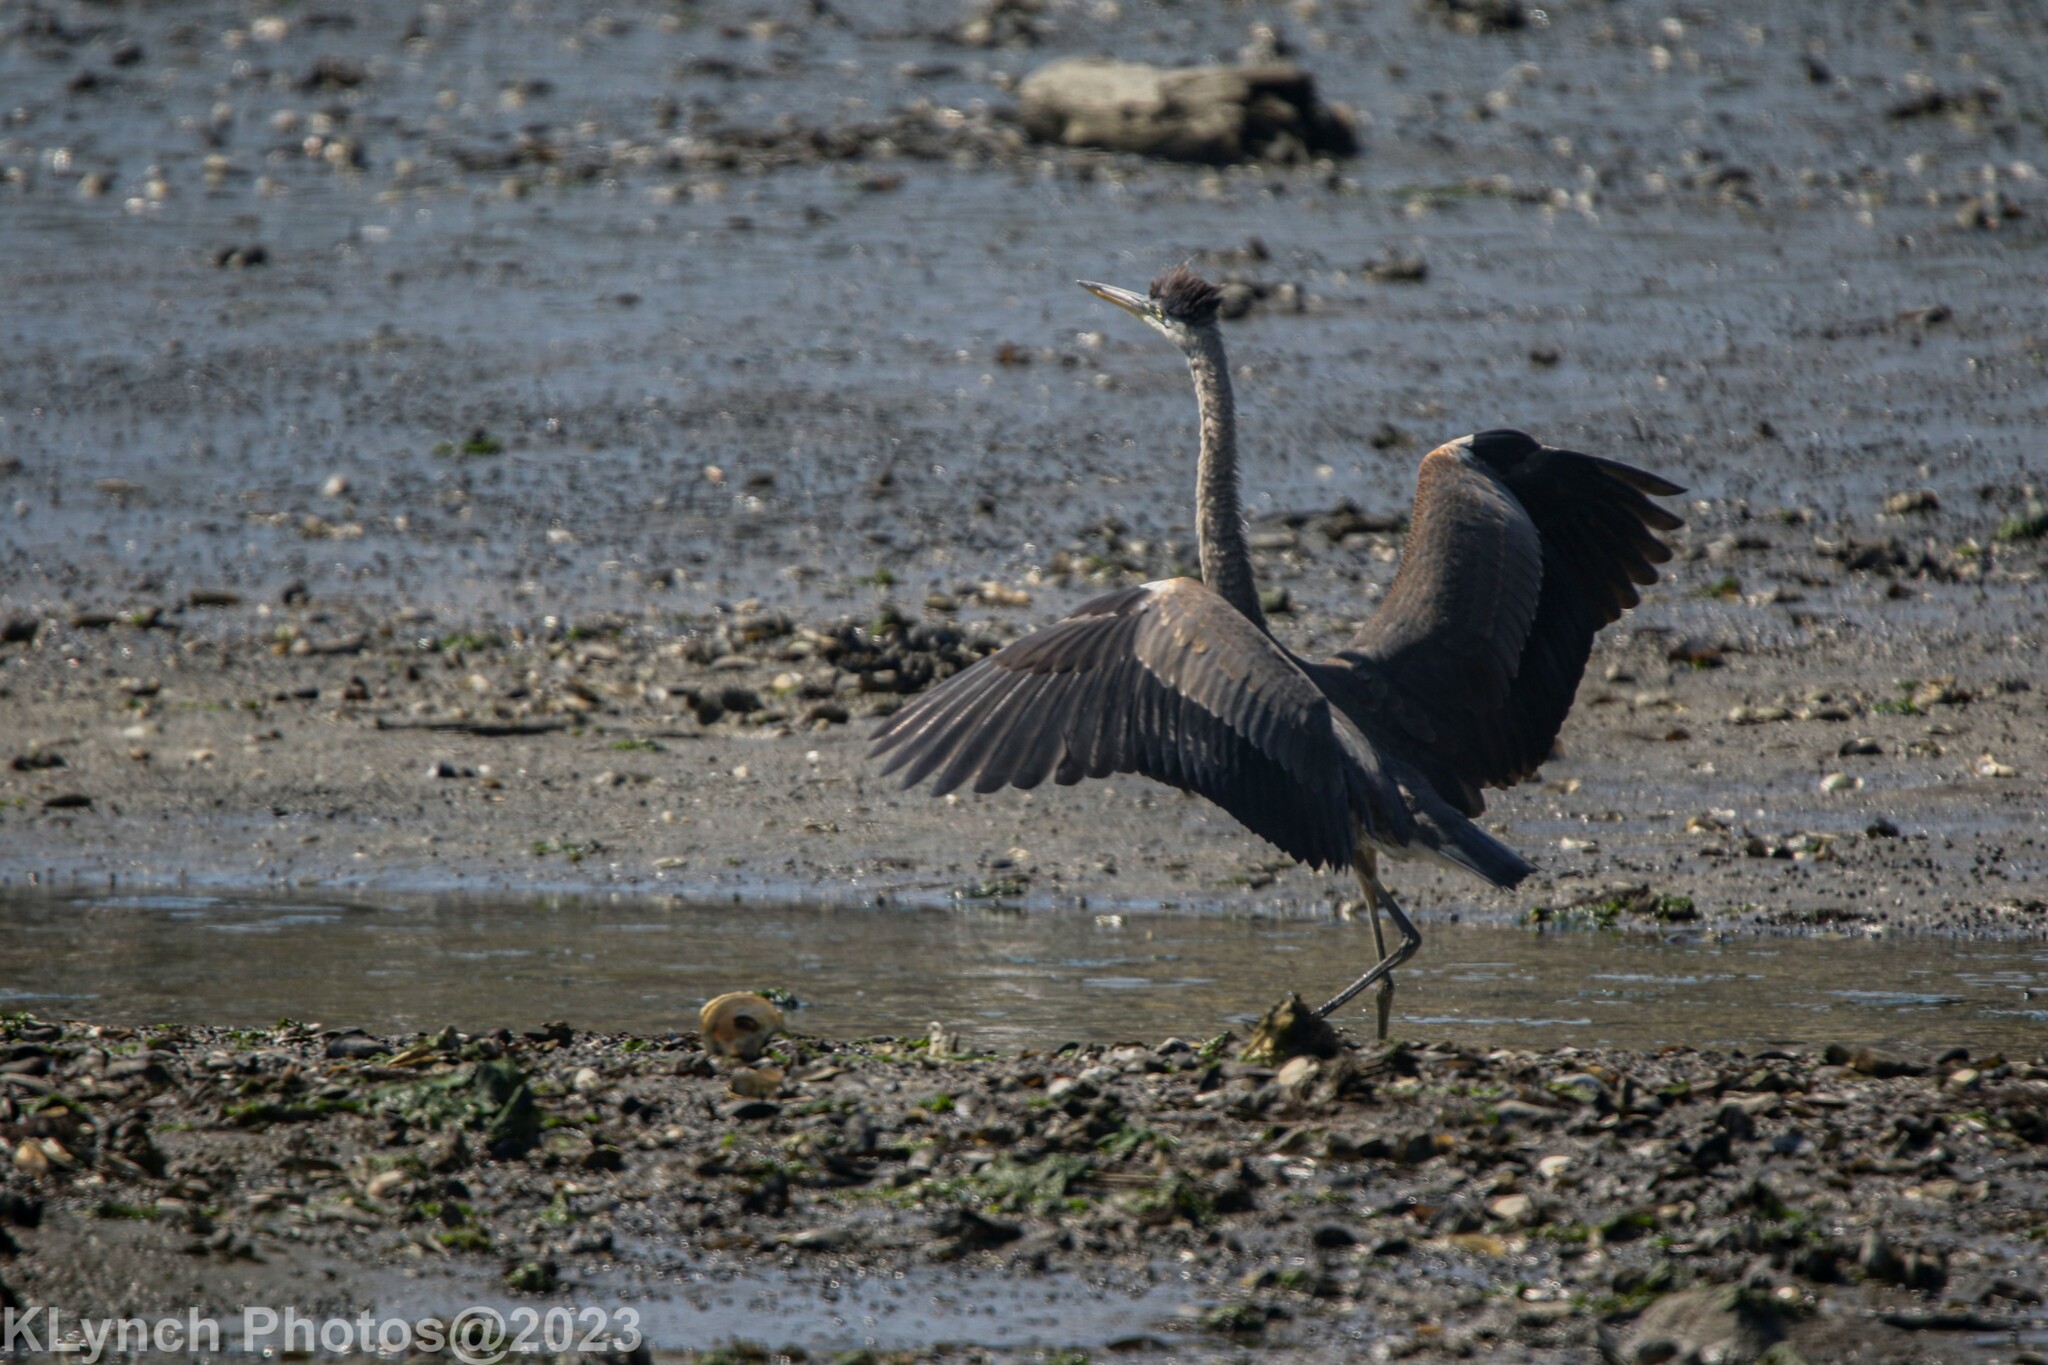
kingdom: Animalia
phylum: Chordata
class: Aves
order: Pelecaniformes
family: Ardeidae
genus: Ardea
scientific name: Ardea herodias
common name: Great blue heron
